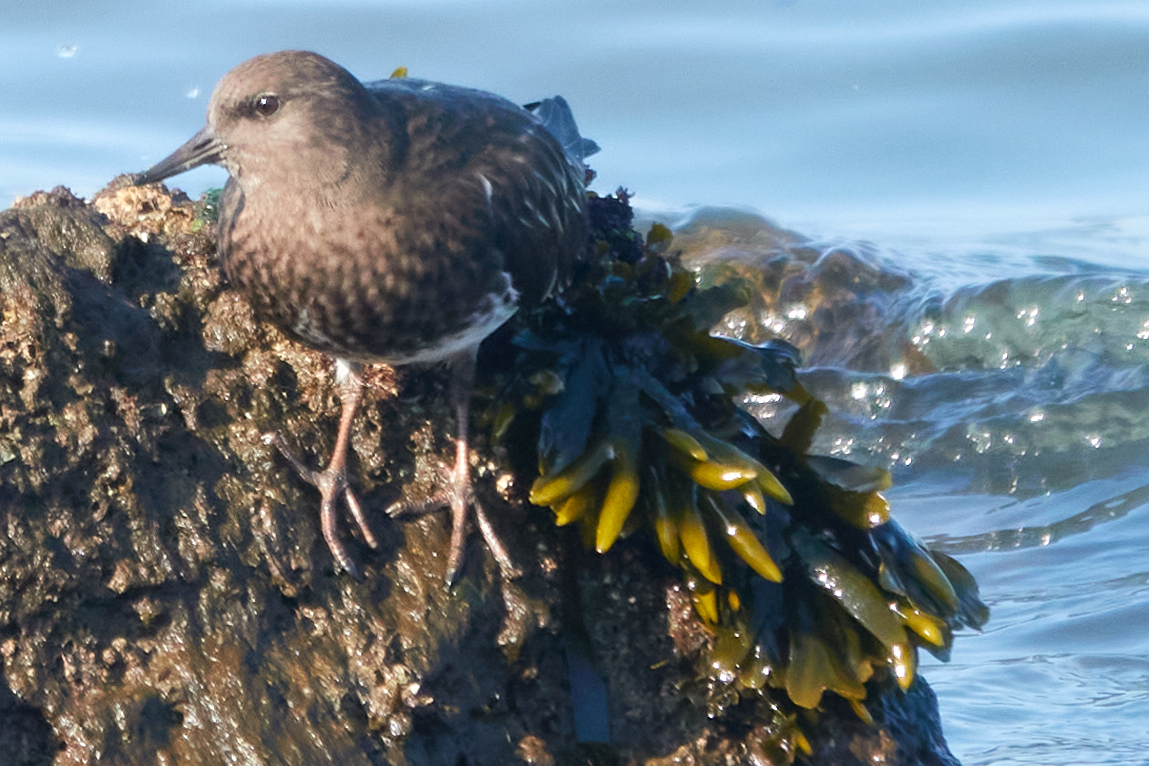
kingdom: Animalia
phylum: Chordata
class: Aves
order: Charadriiformes
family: Scolopacidae
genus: Arenaria
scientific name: Arenaria melanocephala
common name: Black turnstone
